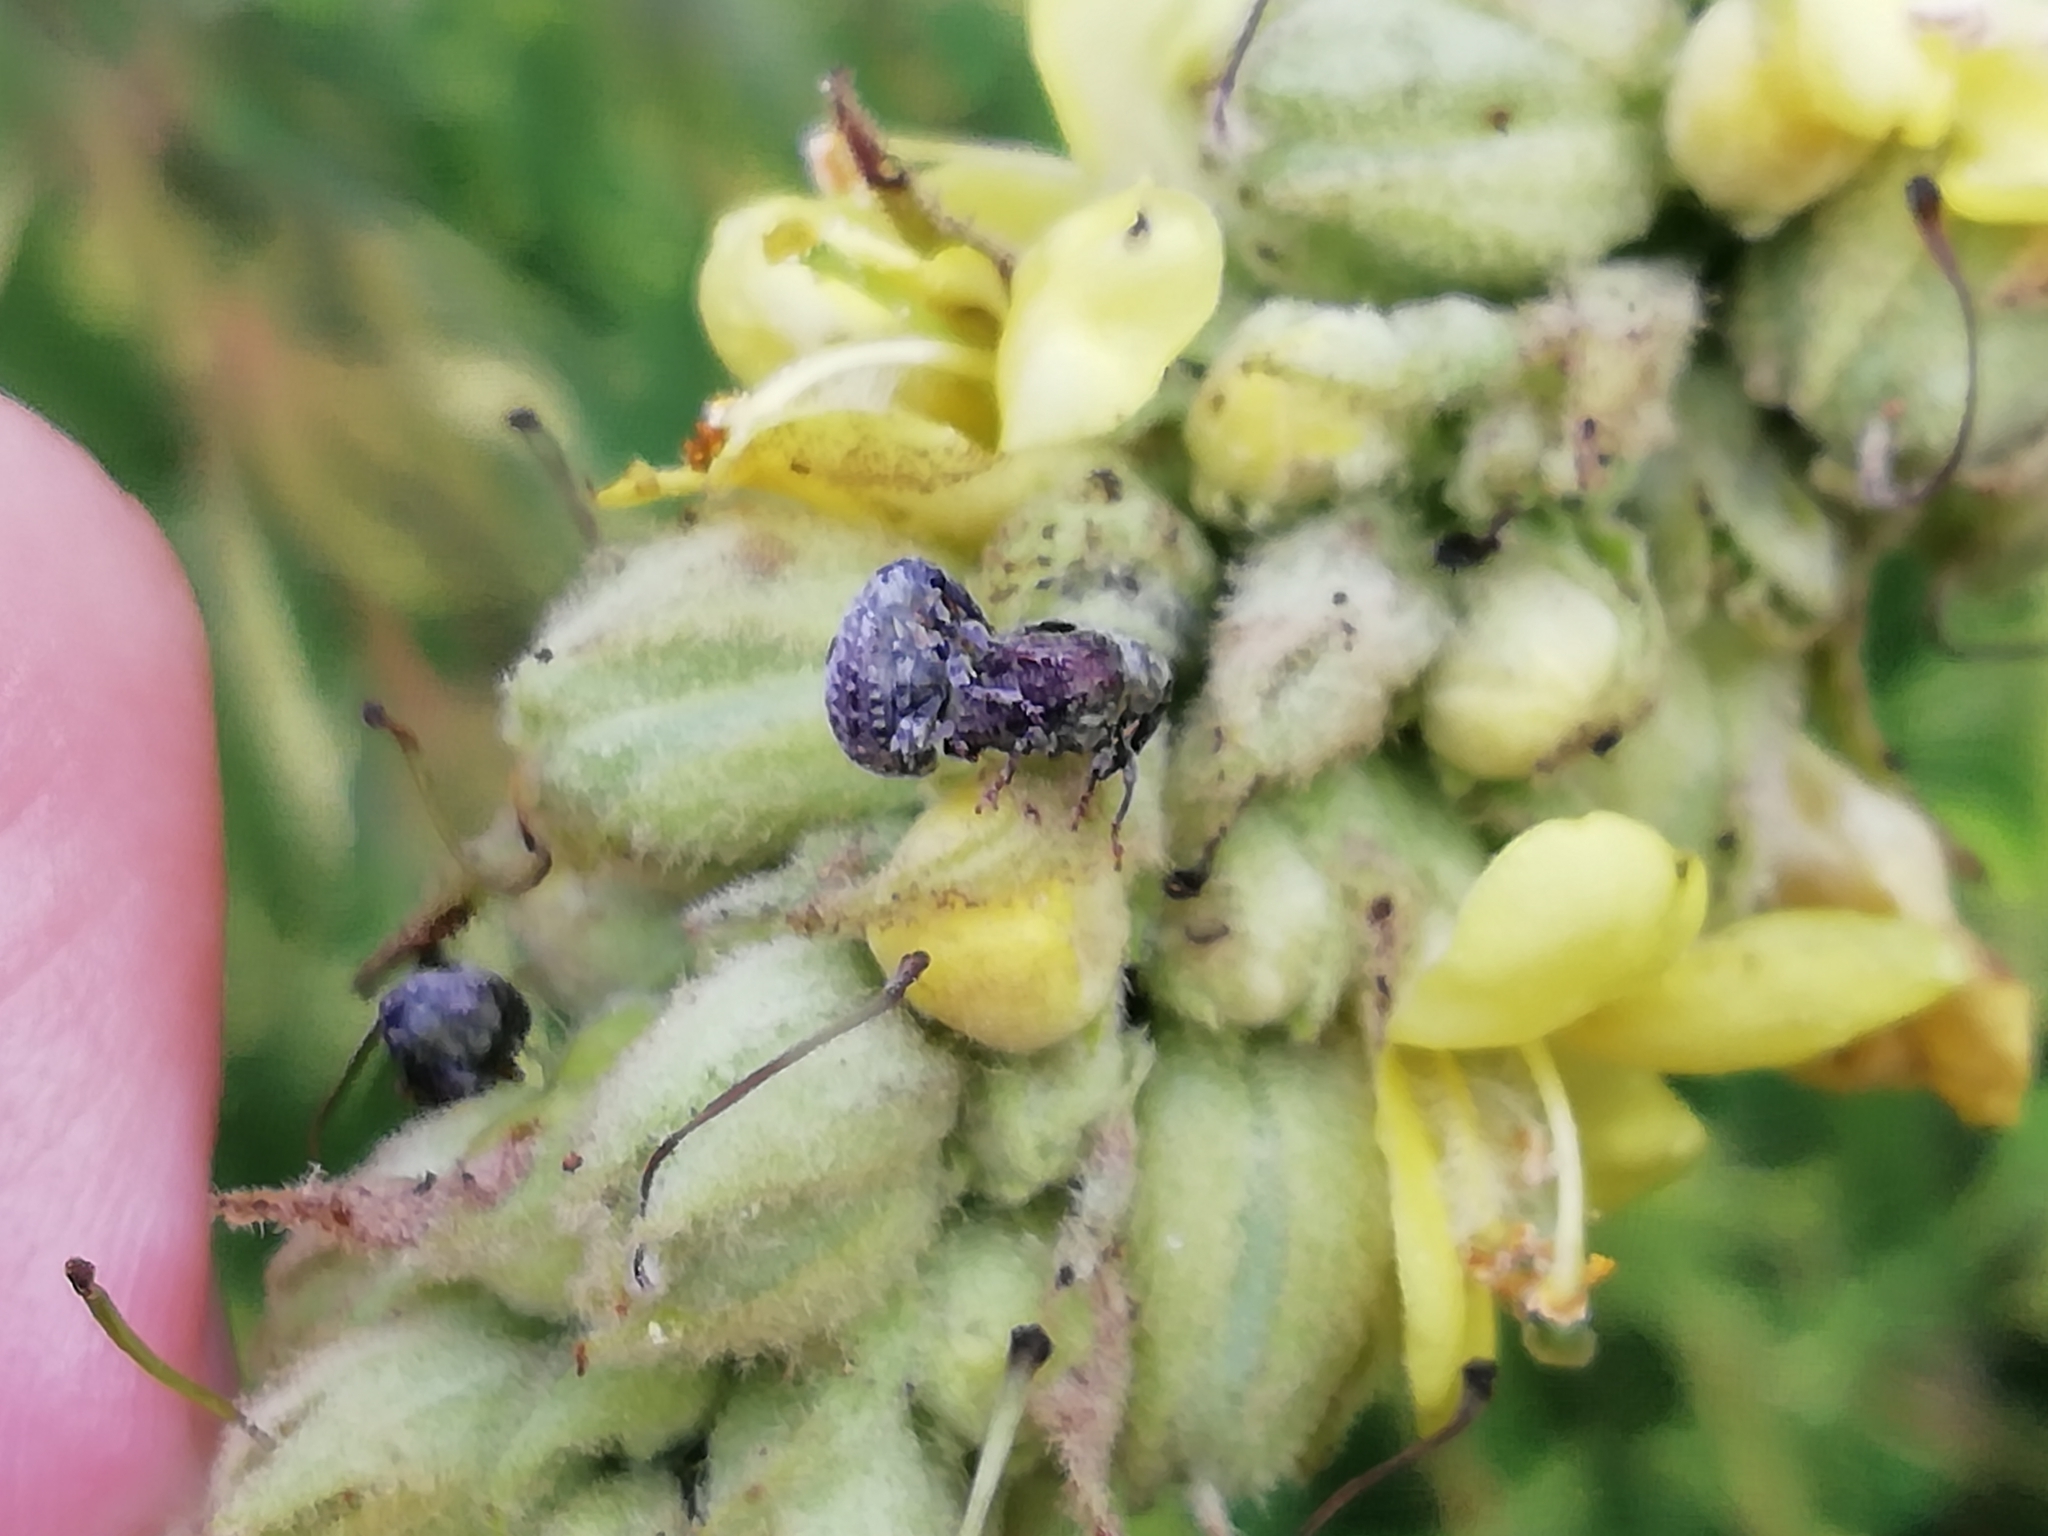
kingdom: Animalia
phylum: Arthropoda
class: Insecta
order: Coleoptera
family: Curculionidae
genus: Cionus
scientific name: Cionus montanus
